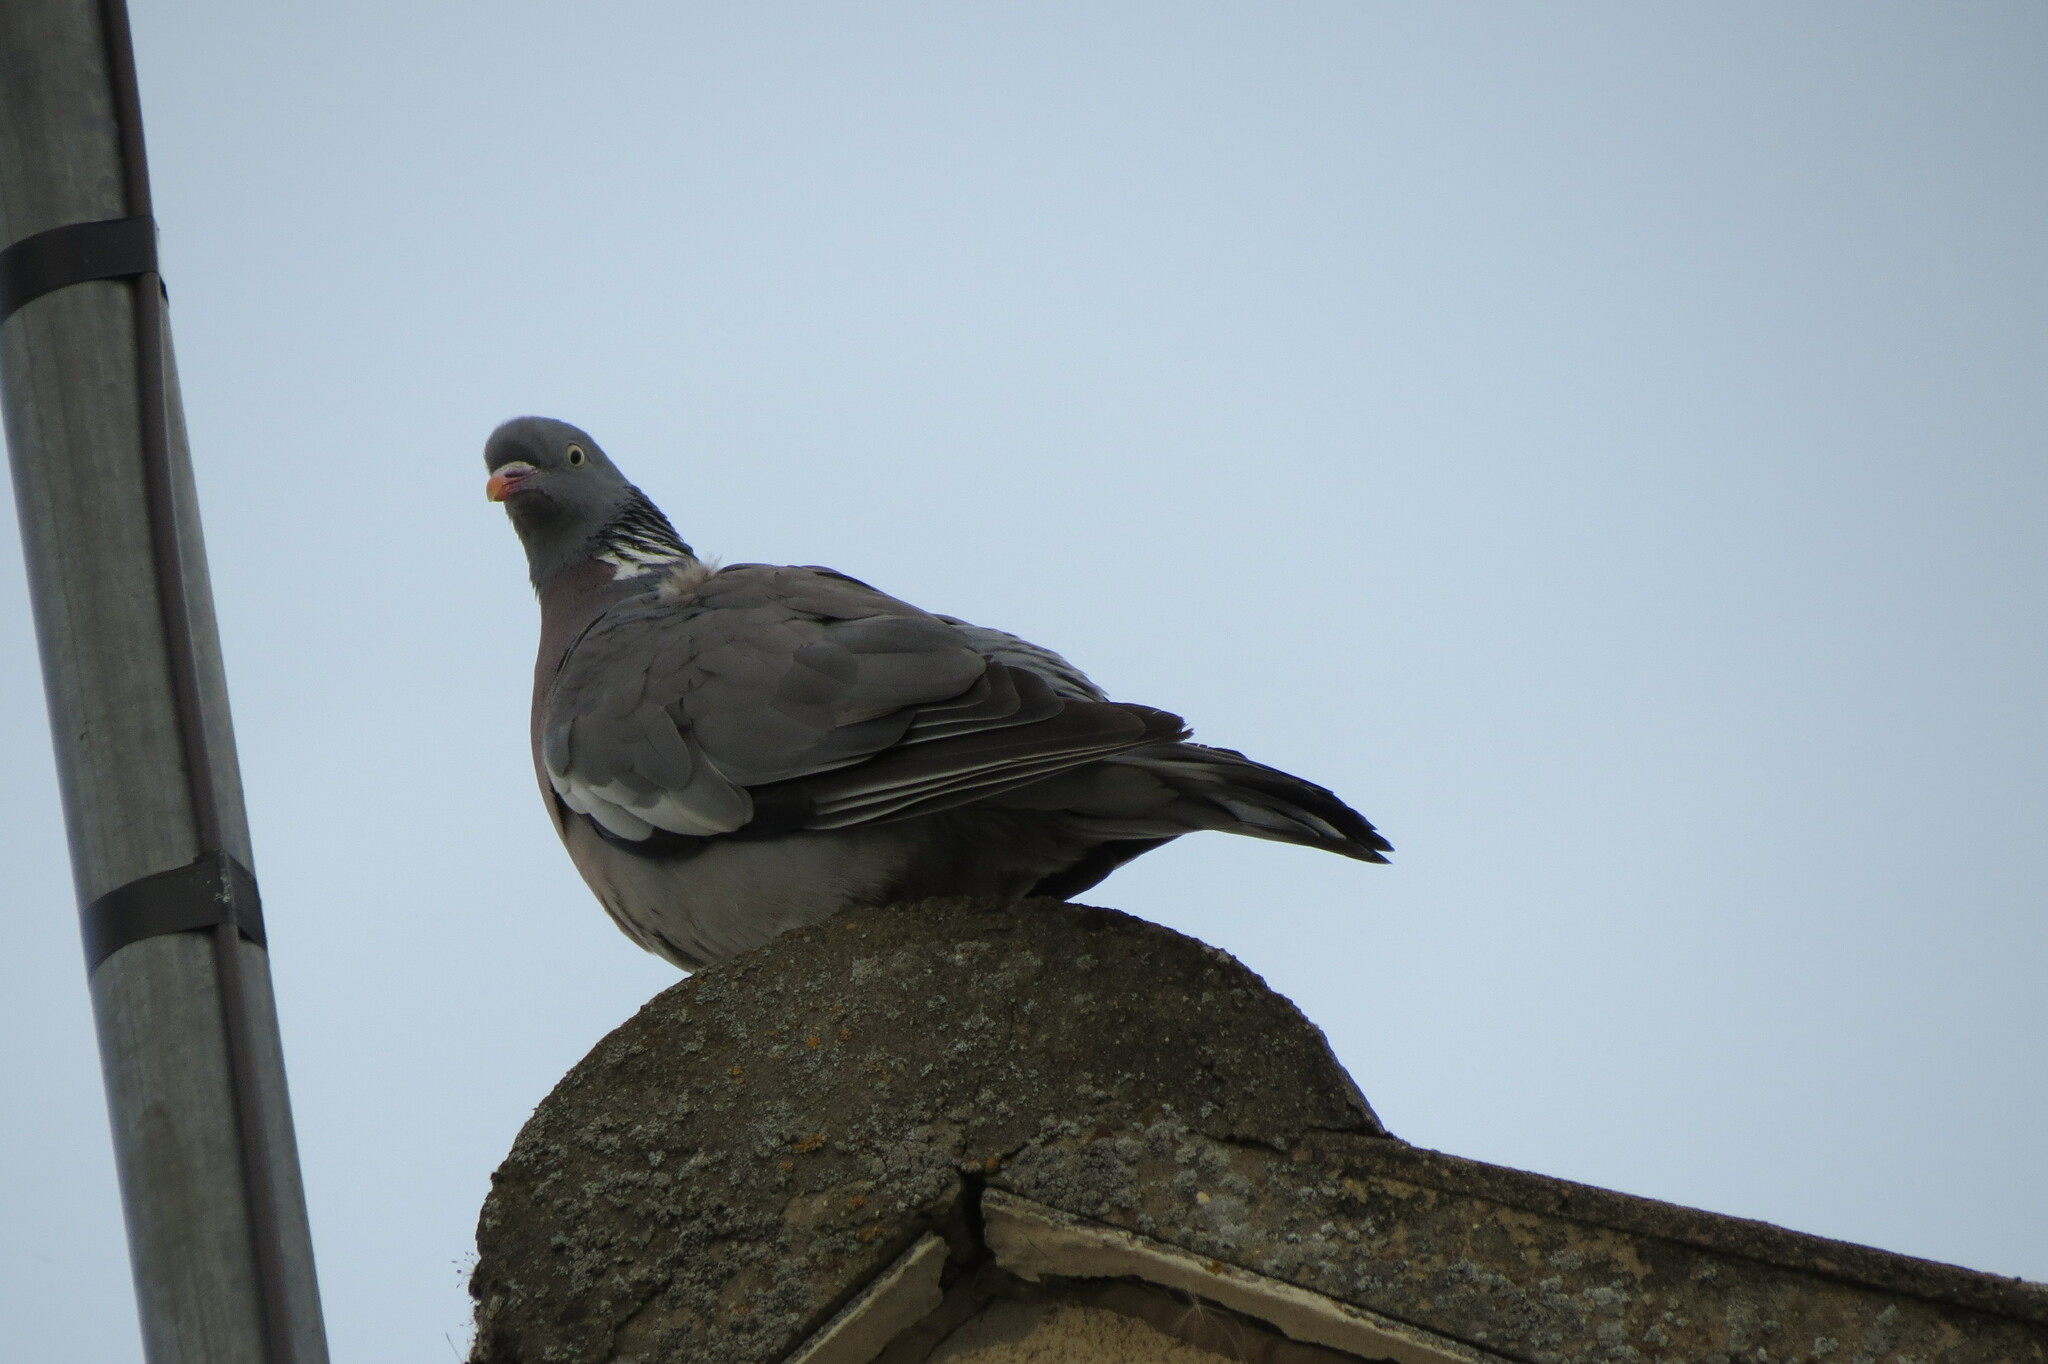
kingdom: Animalia
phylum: Chordata
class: Aves
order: Columbiformes
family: Columbidae
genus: Columba
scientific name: Columba palumbus
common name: Common wood pigeon
